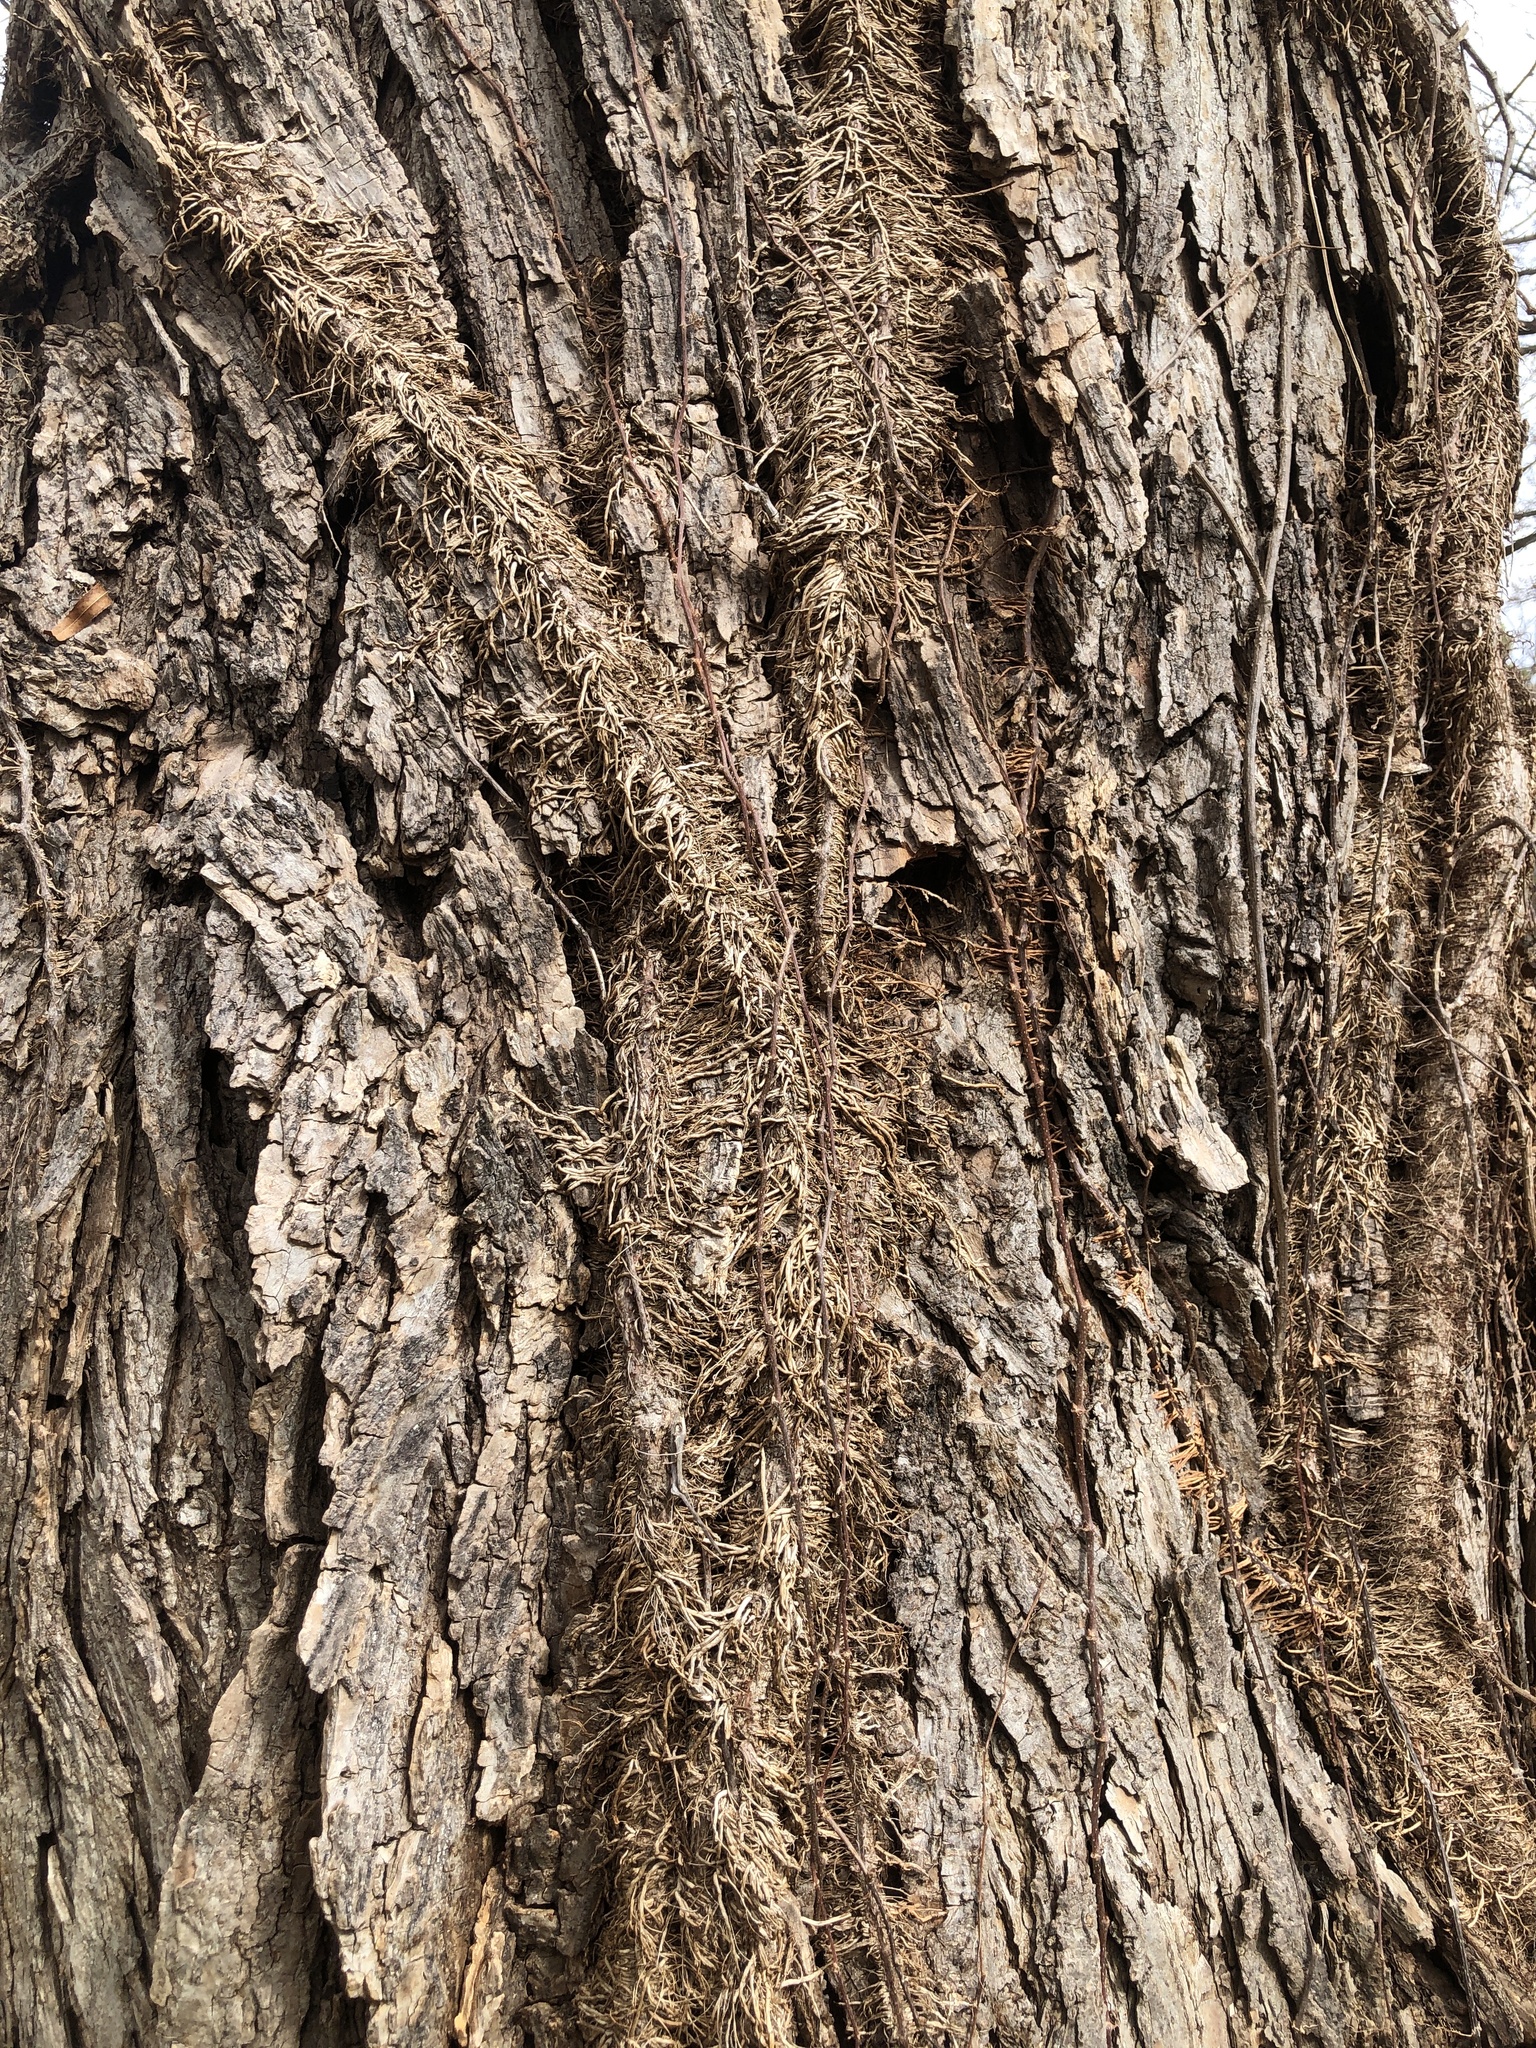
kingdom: Plantae
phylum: Tracheophyta
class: Magnoliopsida
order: Sapindales
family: Anacardiaceae
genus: Toxicodendron
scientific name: Toxicodendron radicans
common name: Poison ivy
